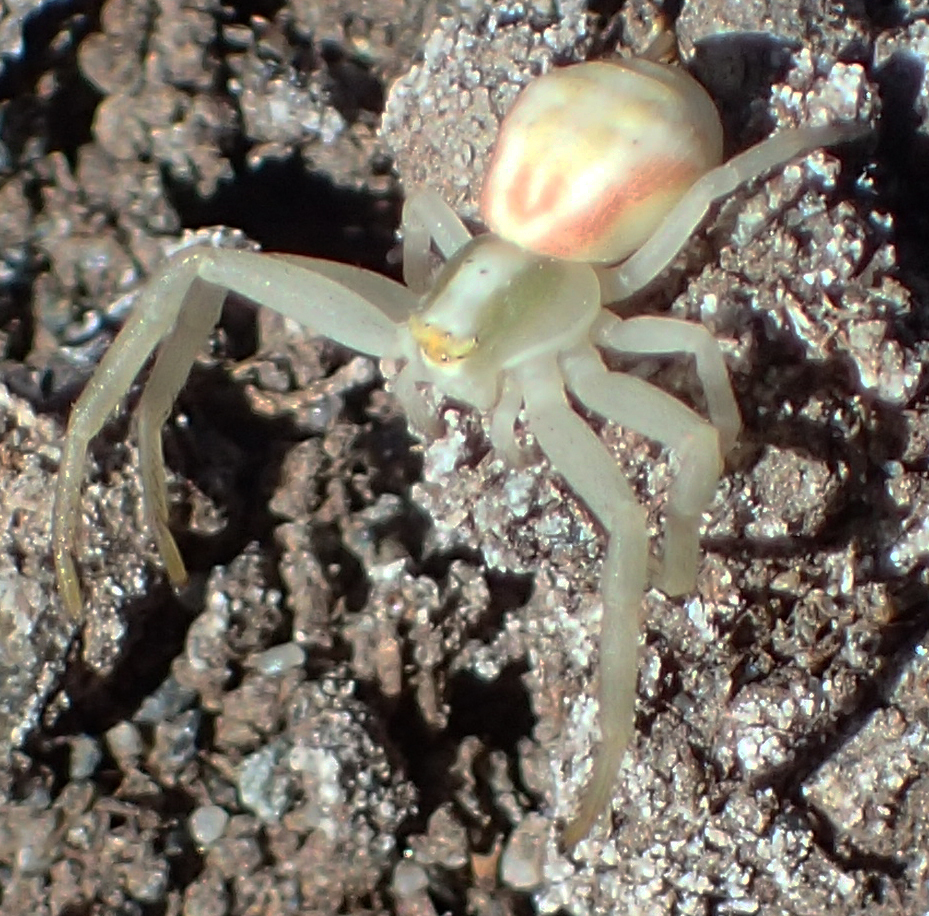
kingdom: Animalia
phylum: Arthropoda
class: Arachnida
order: Araneae
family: Thomisidae
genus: Misumena
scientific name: Misumena vatia
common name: Goldenrod crab spider
